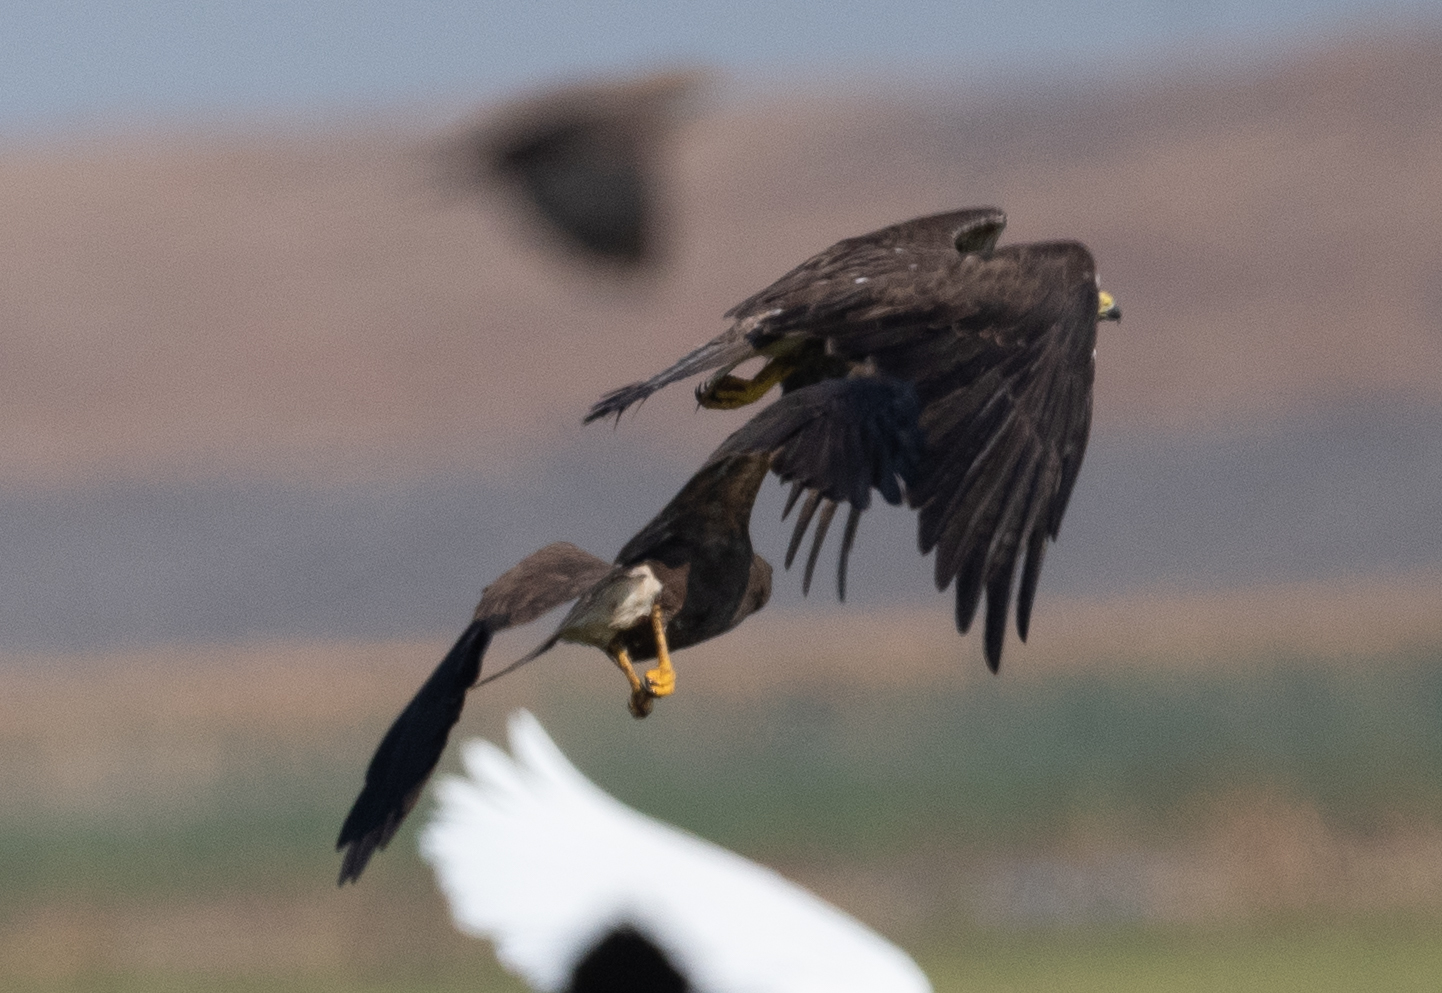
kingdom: Animalia
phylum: Chordata
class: Aves
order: Accipitriformes
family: Accipitridae
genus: Buteo
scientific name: Buteo swainsoni
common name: Swainson's hawk
